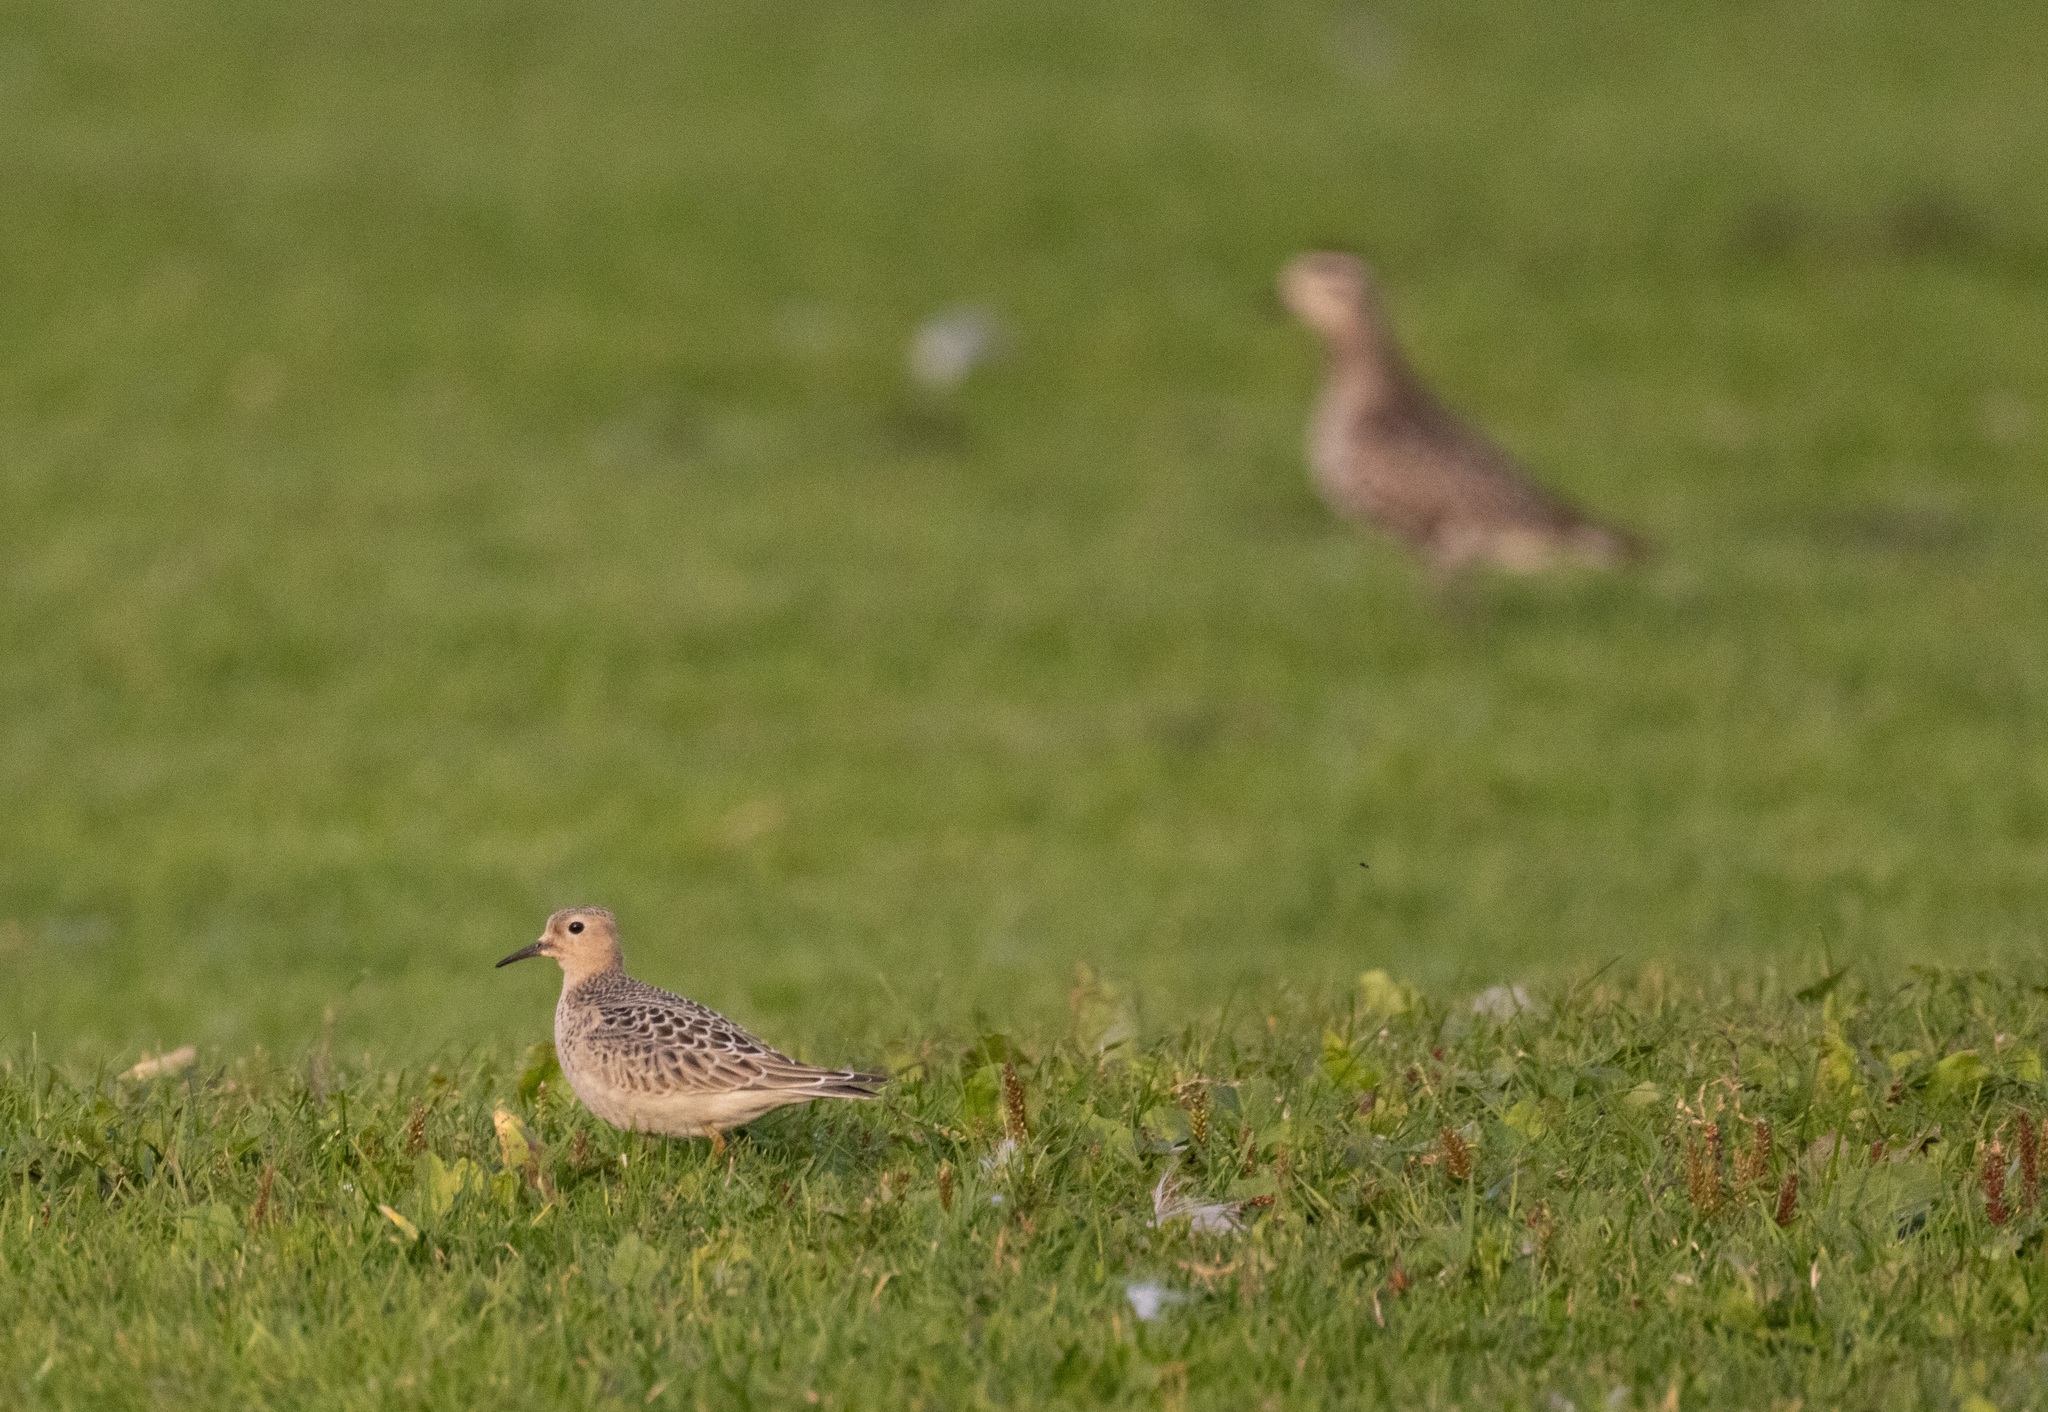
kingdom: Animalia
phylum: Chordata
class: Aves
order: Charadriiformes
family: Scolopacidae
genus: Calidris
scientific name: Calidris subruficollis
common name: Buff-breasted sandpiper
